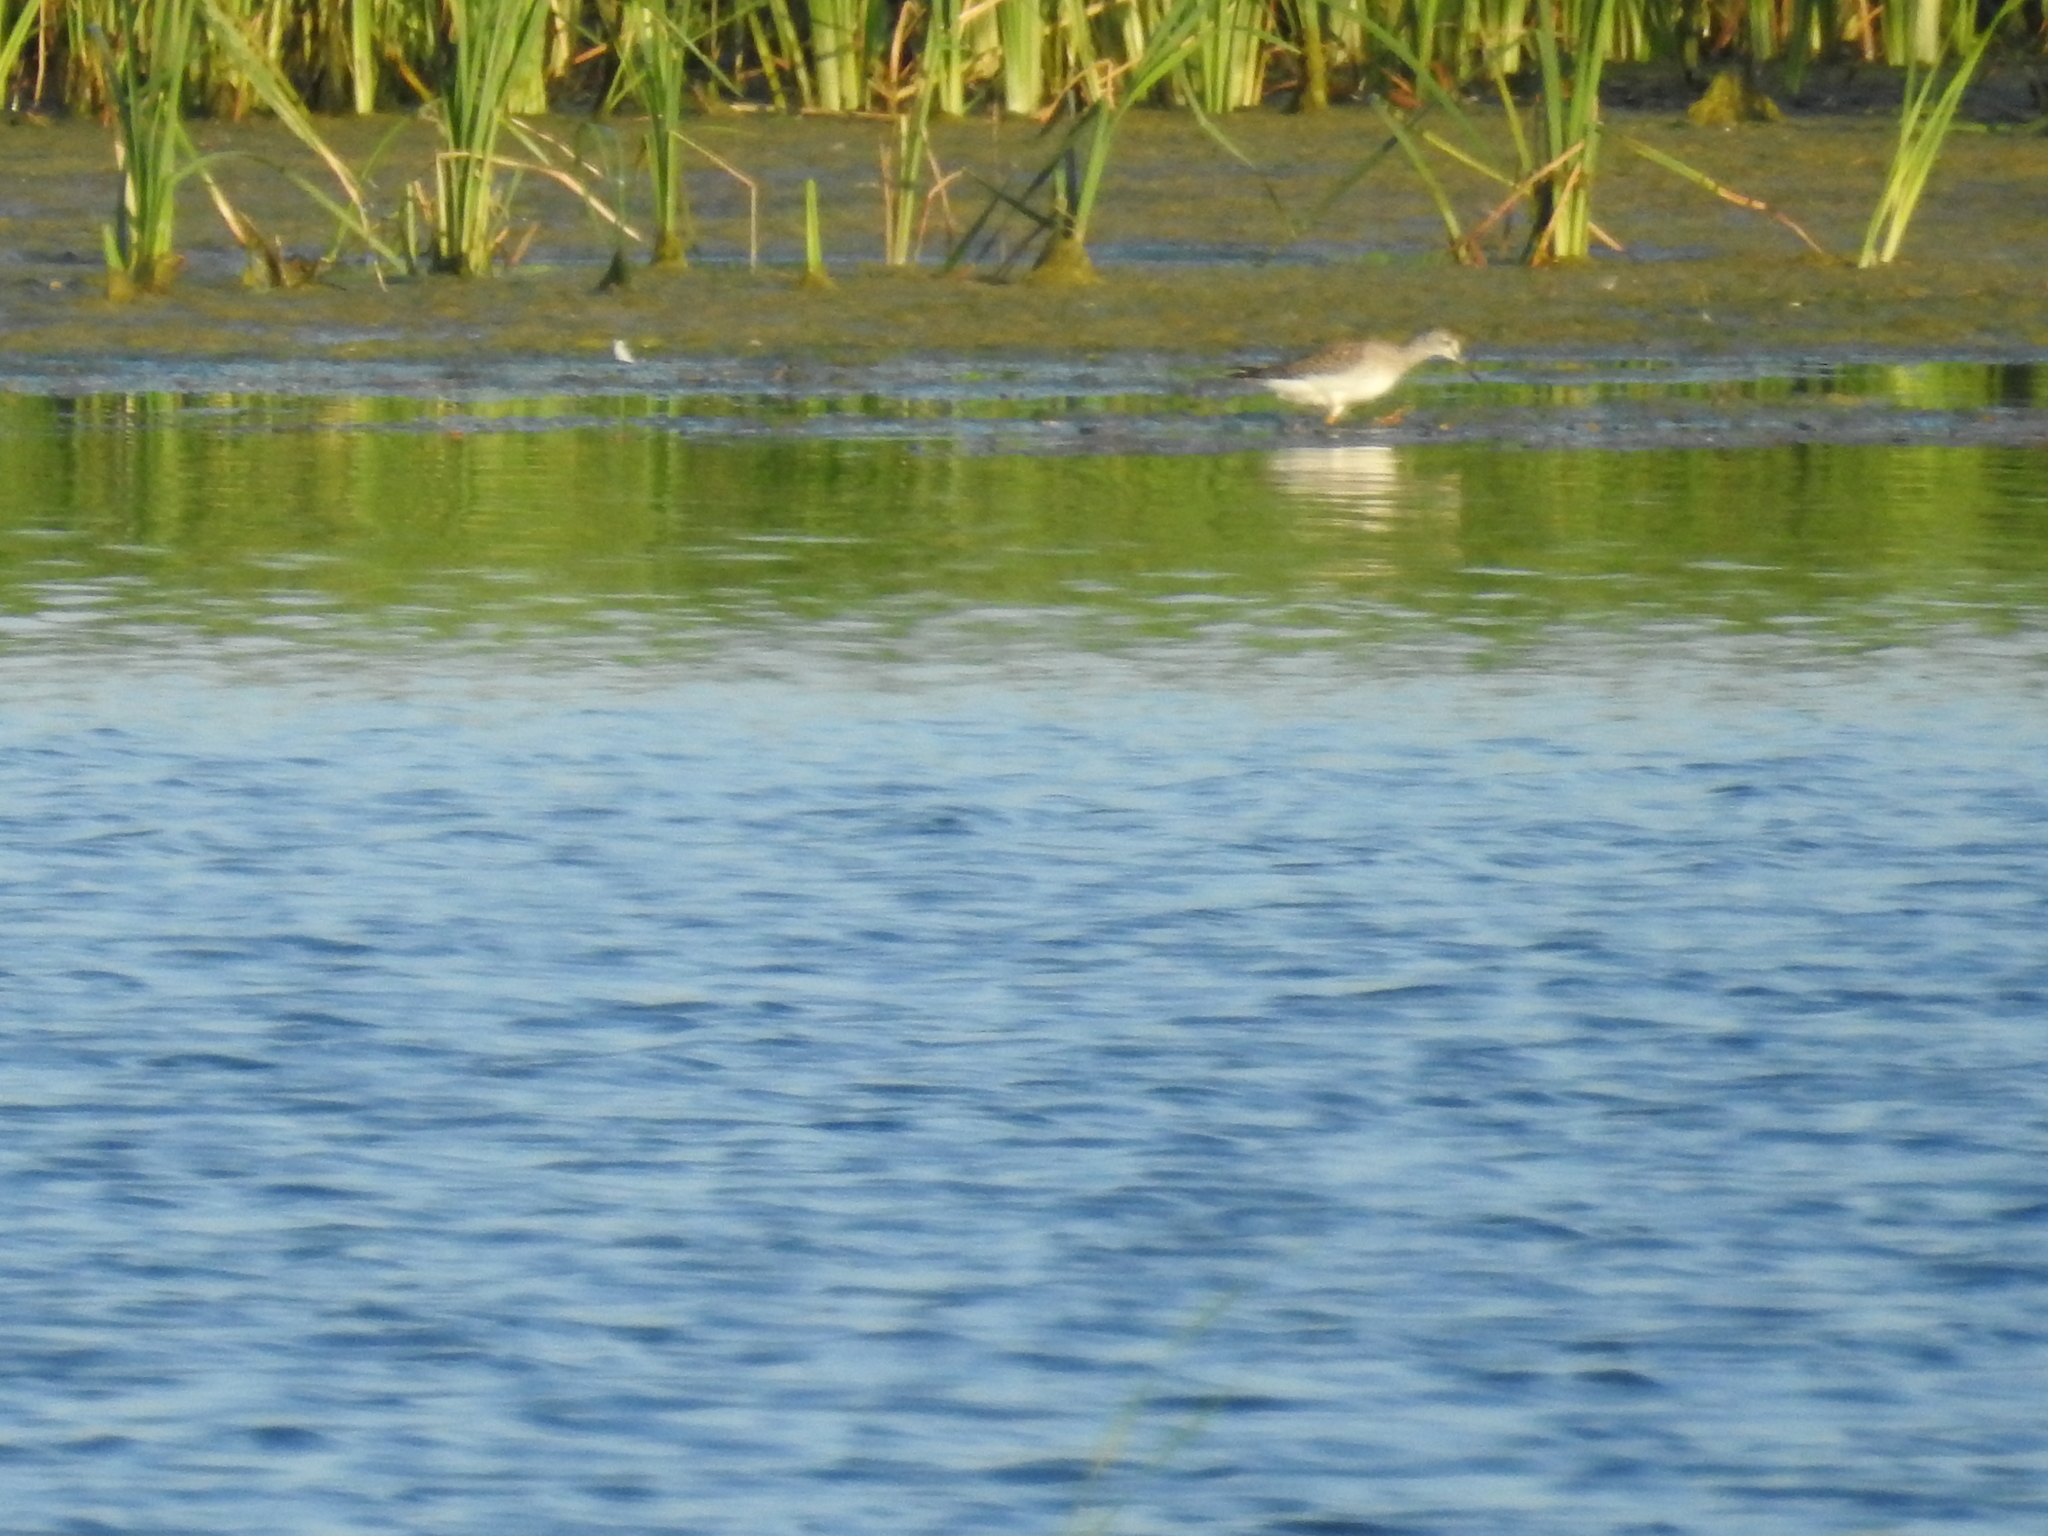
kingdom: Animalia
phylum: Chordata
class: Aves
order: Charadriiformes
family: Scolopacidae
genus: Tringa
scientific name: Tringa flavipes
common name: Lesser yellowlegs
